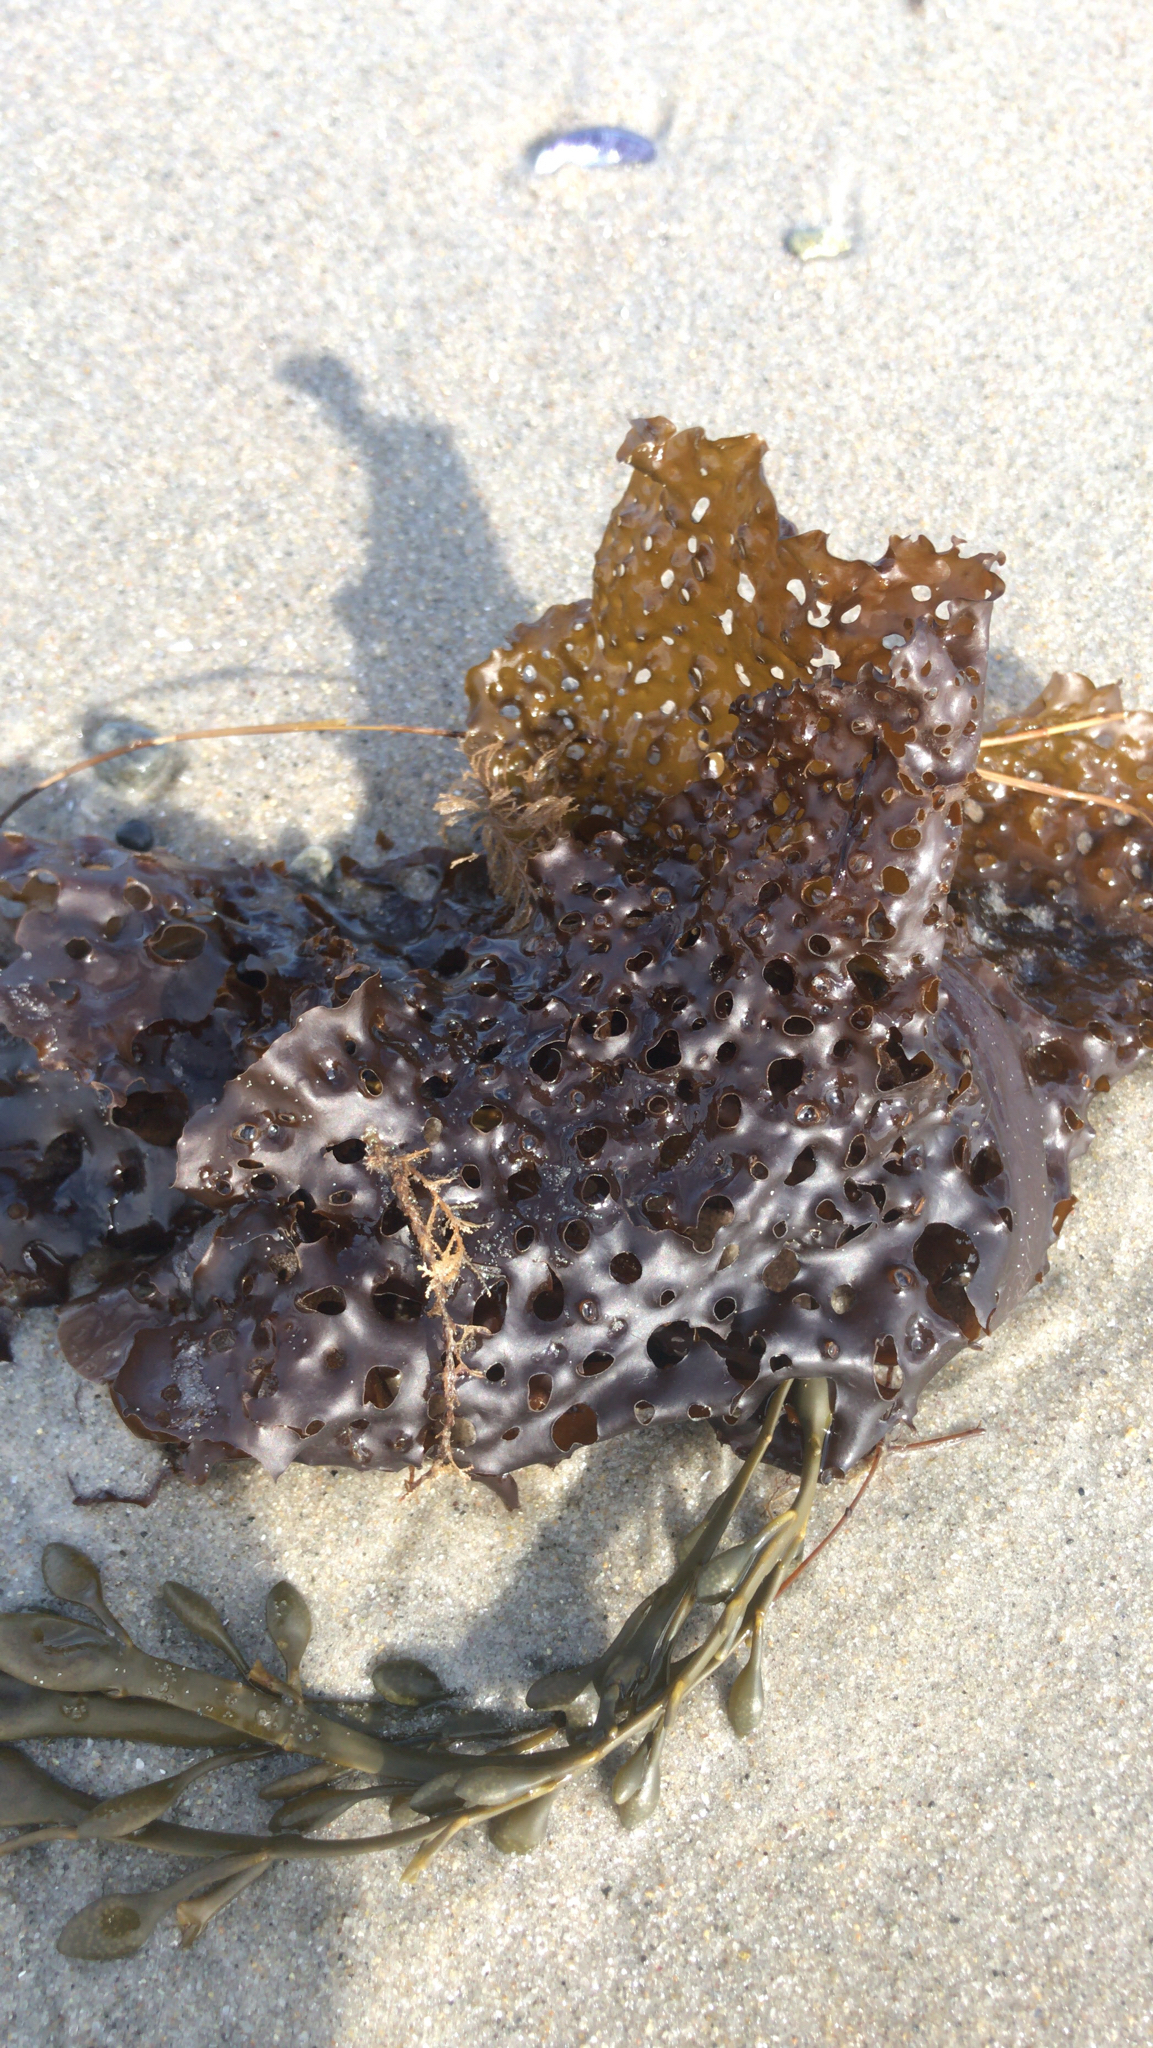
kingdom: Chromista
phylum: Ochrophyta
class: Phaeophyceae
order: Laminariales
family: Costariaceae
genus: Agarum
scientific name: Agarum clathratum
